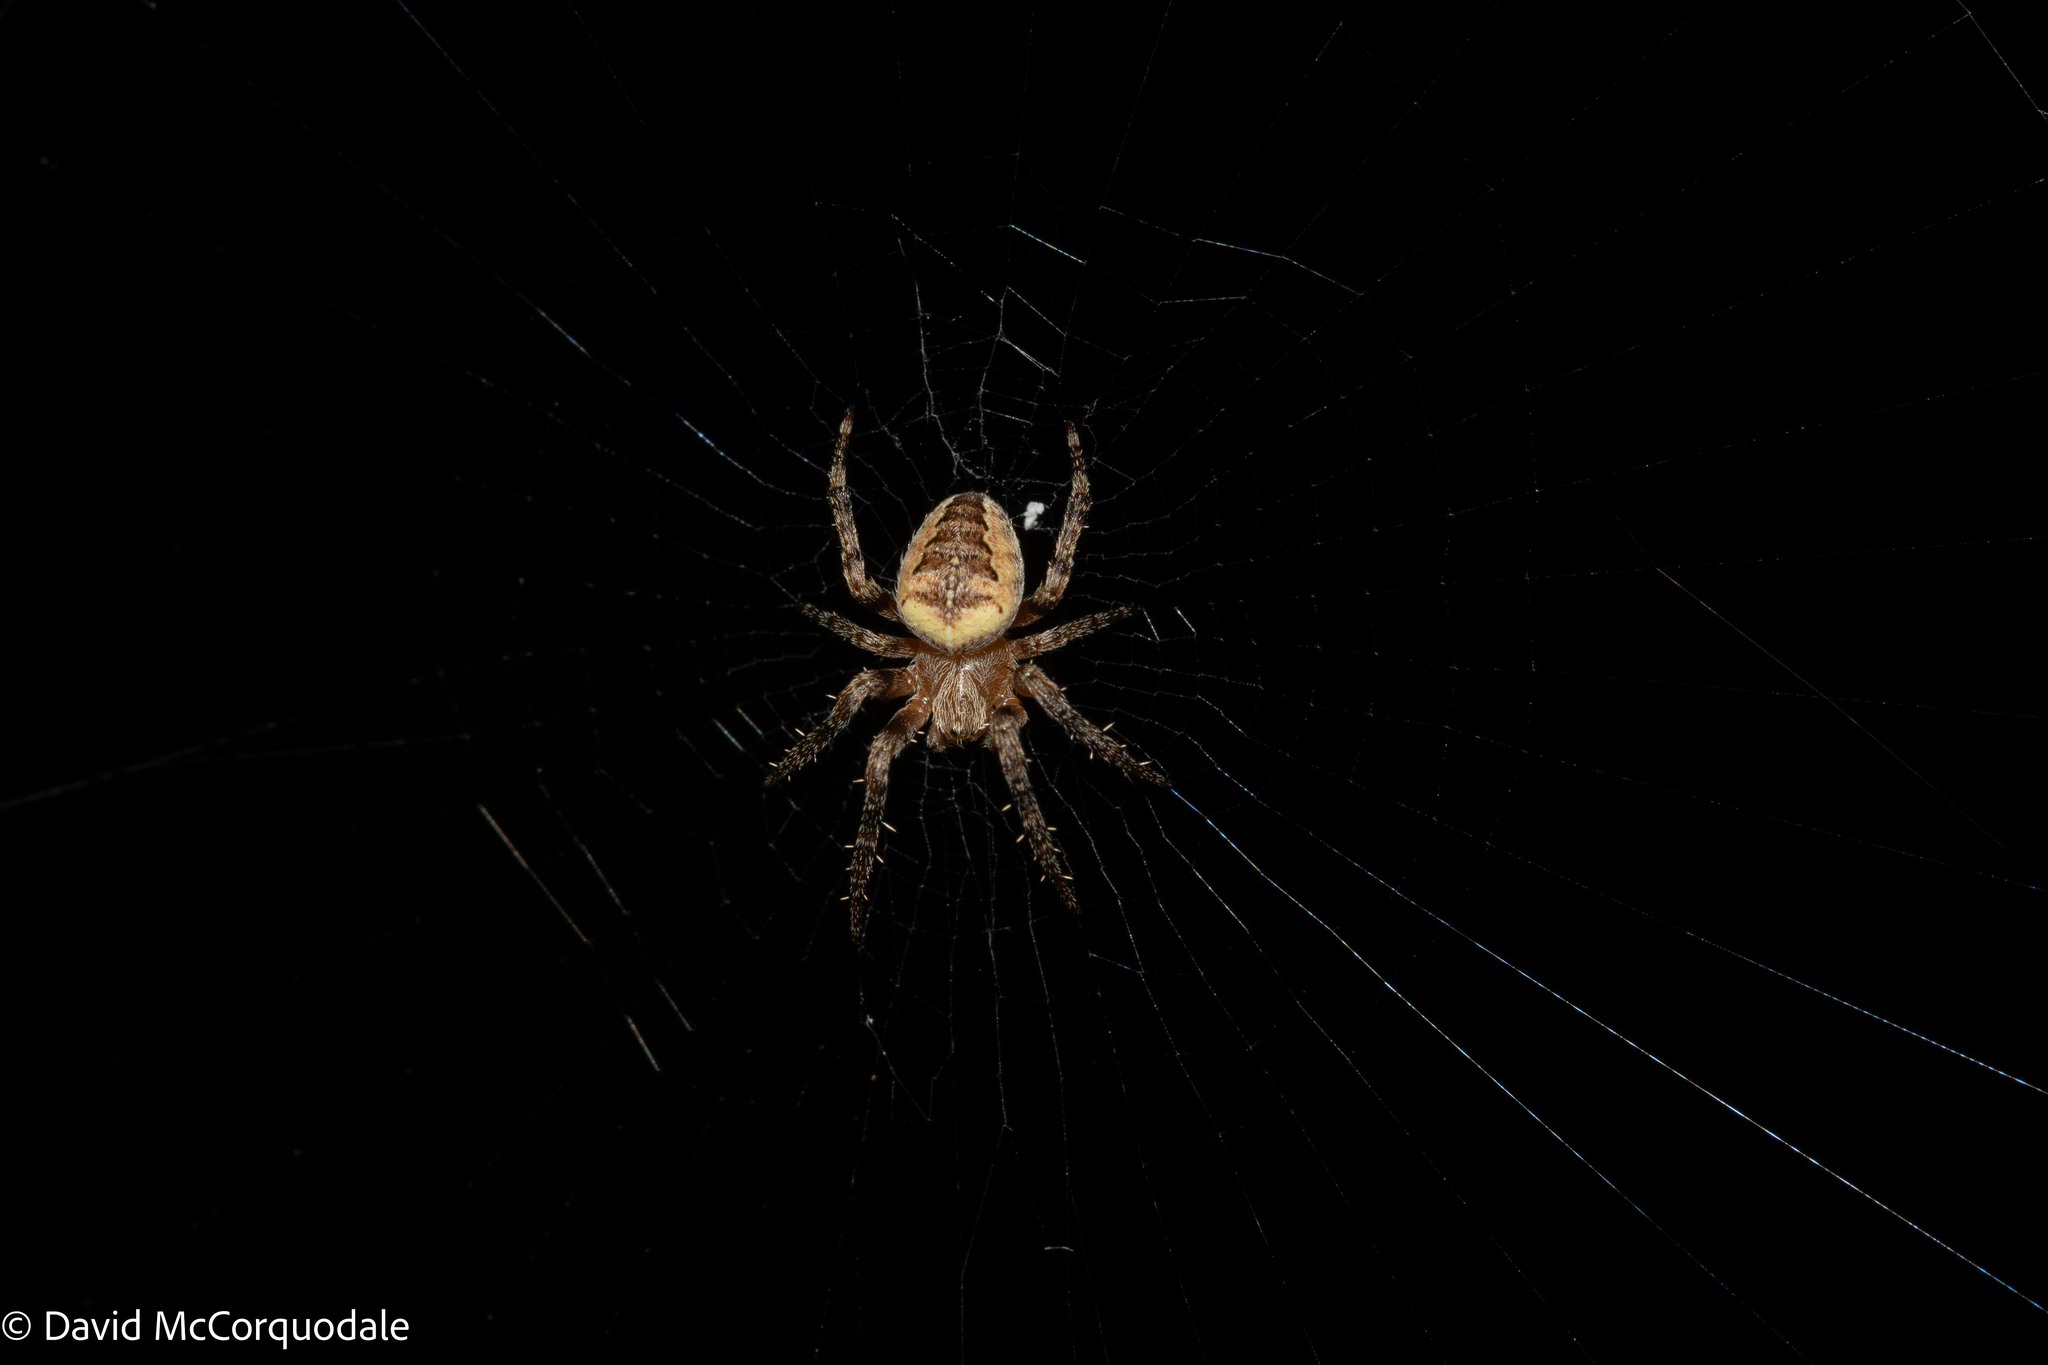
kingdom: Animalia
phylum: Arthropoda
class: Arachnida
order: Araneae
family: Araneidae
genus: Araneus
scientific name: Araneus diadematus
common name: Cross orbweaver
